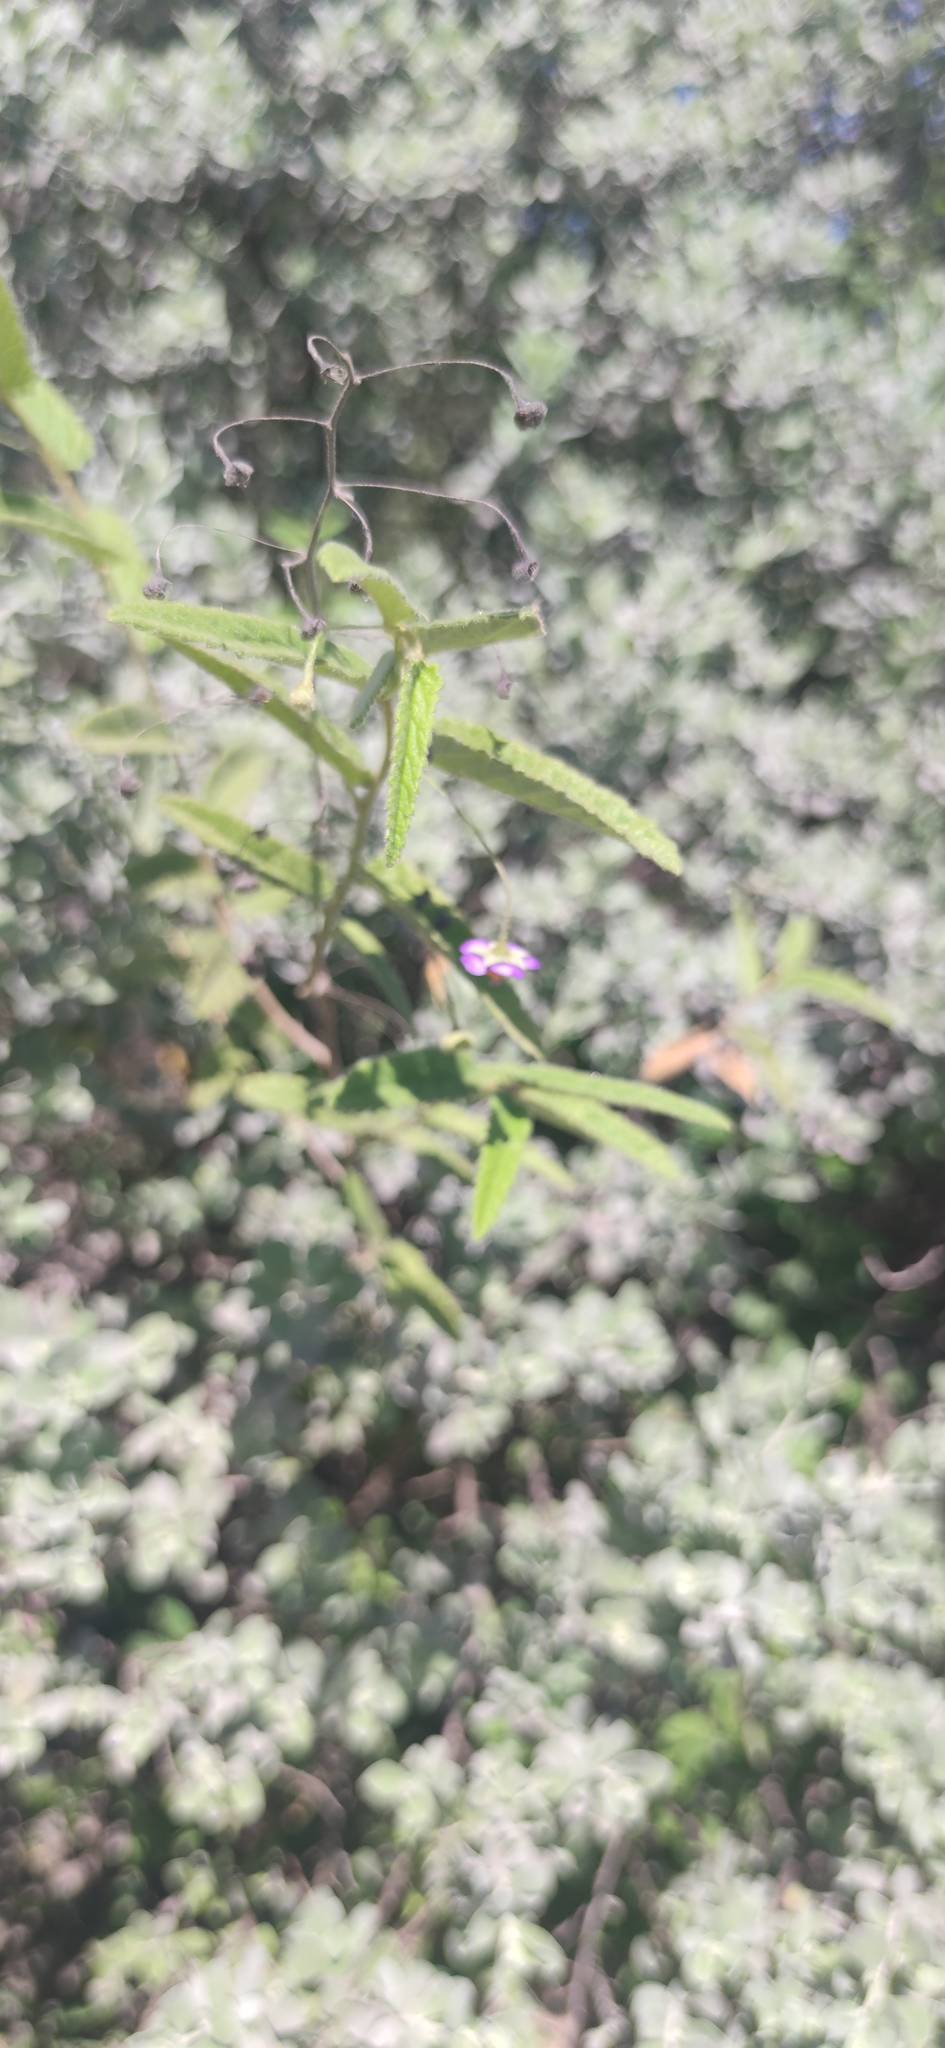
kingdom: Plantae
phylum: Tracheophyta
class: Magnoliopsida
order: Malvales
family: Malvaceae
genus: Meximalva
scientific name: Meximalva filipes
